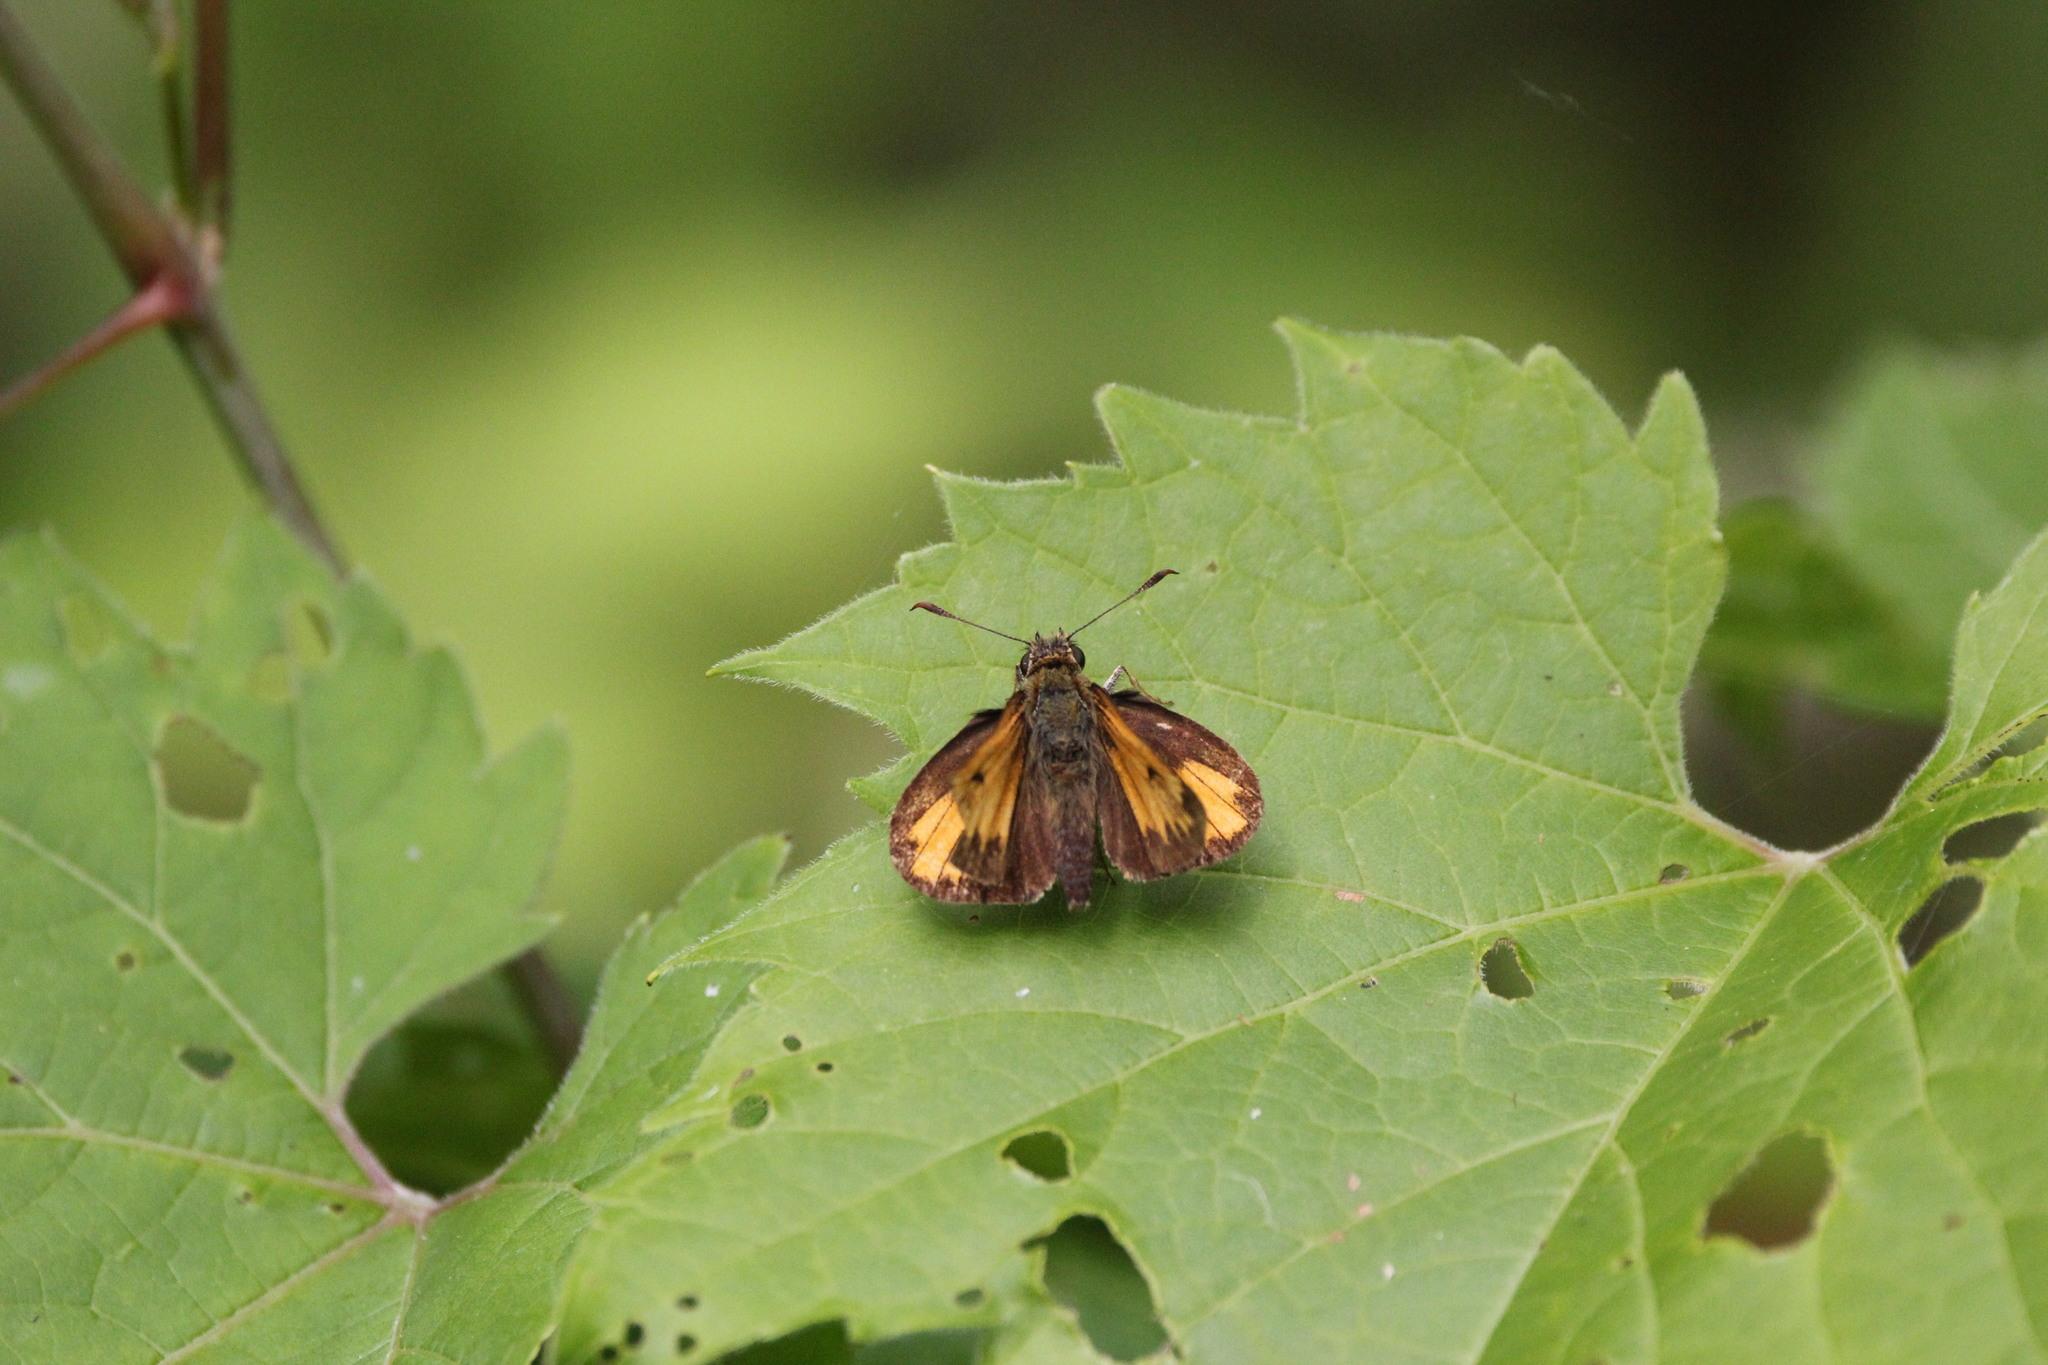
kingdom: Animalia
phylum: Arthropoda
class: Insecta
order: Lepidoptera
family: Hesperiidae
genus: Lon
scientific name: Lon hobomok
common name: Hobomok skipper
